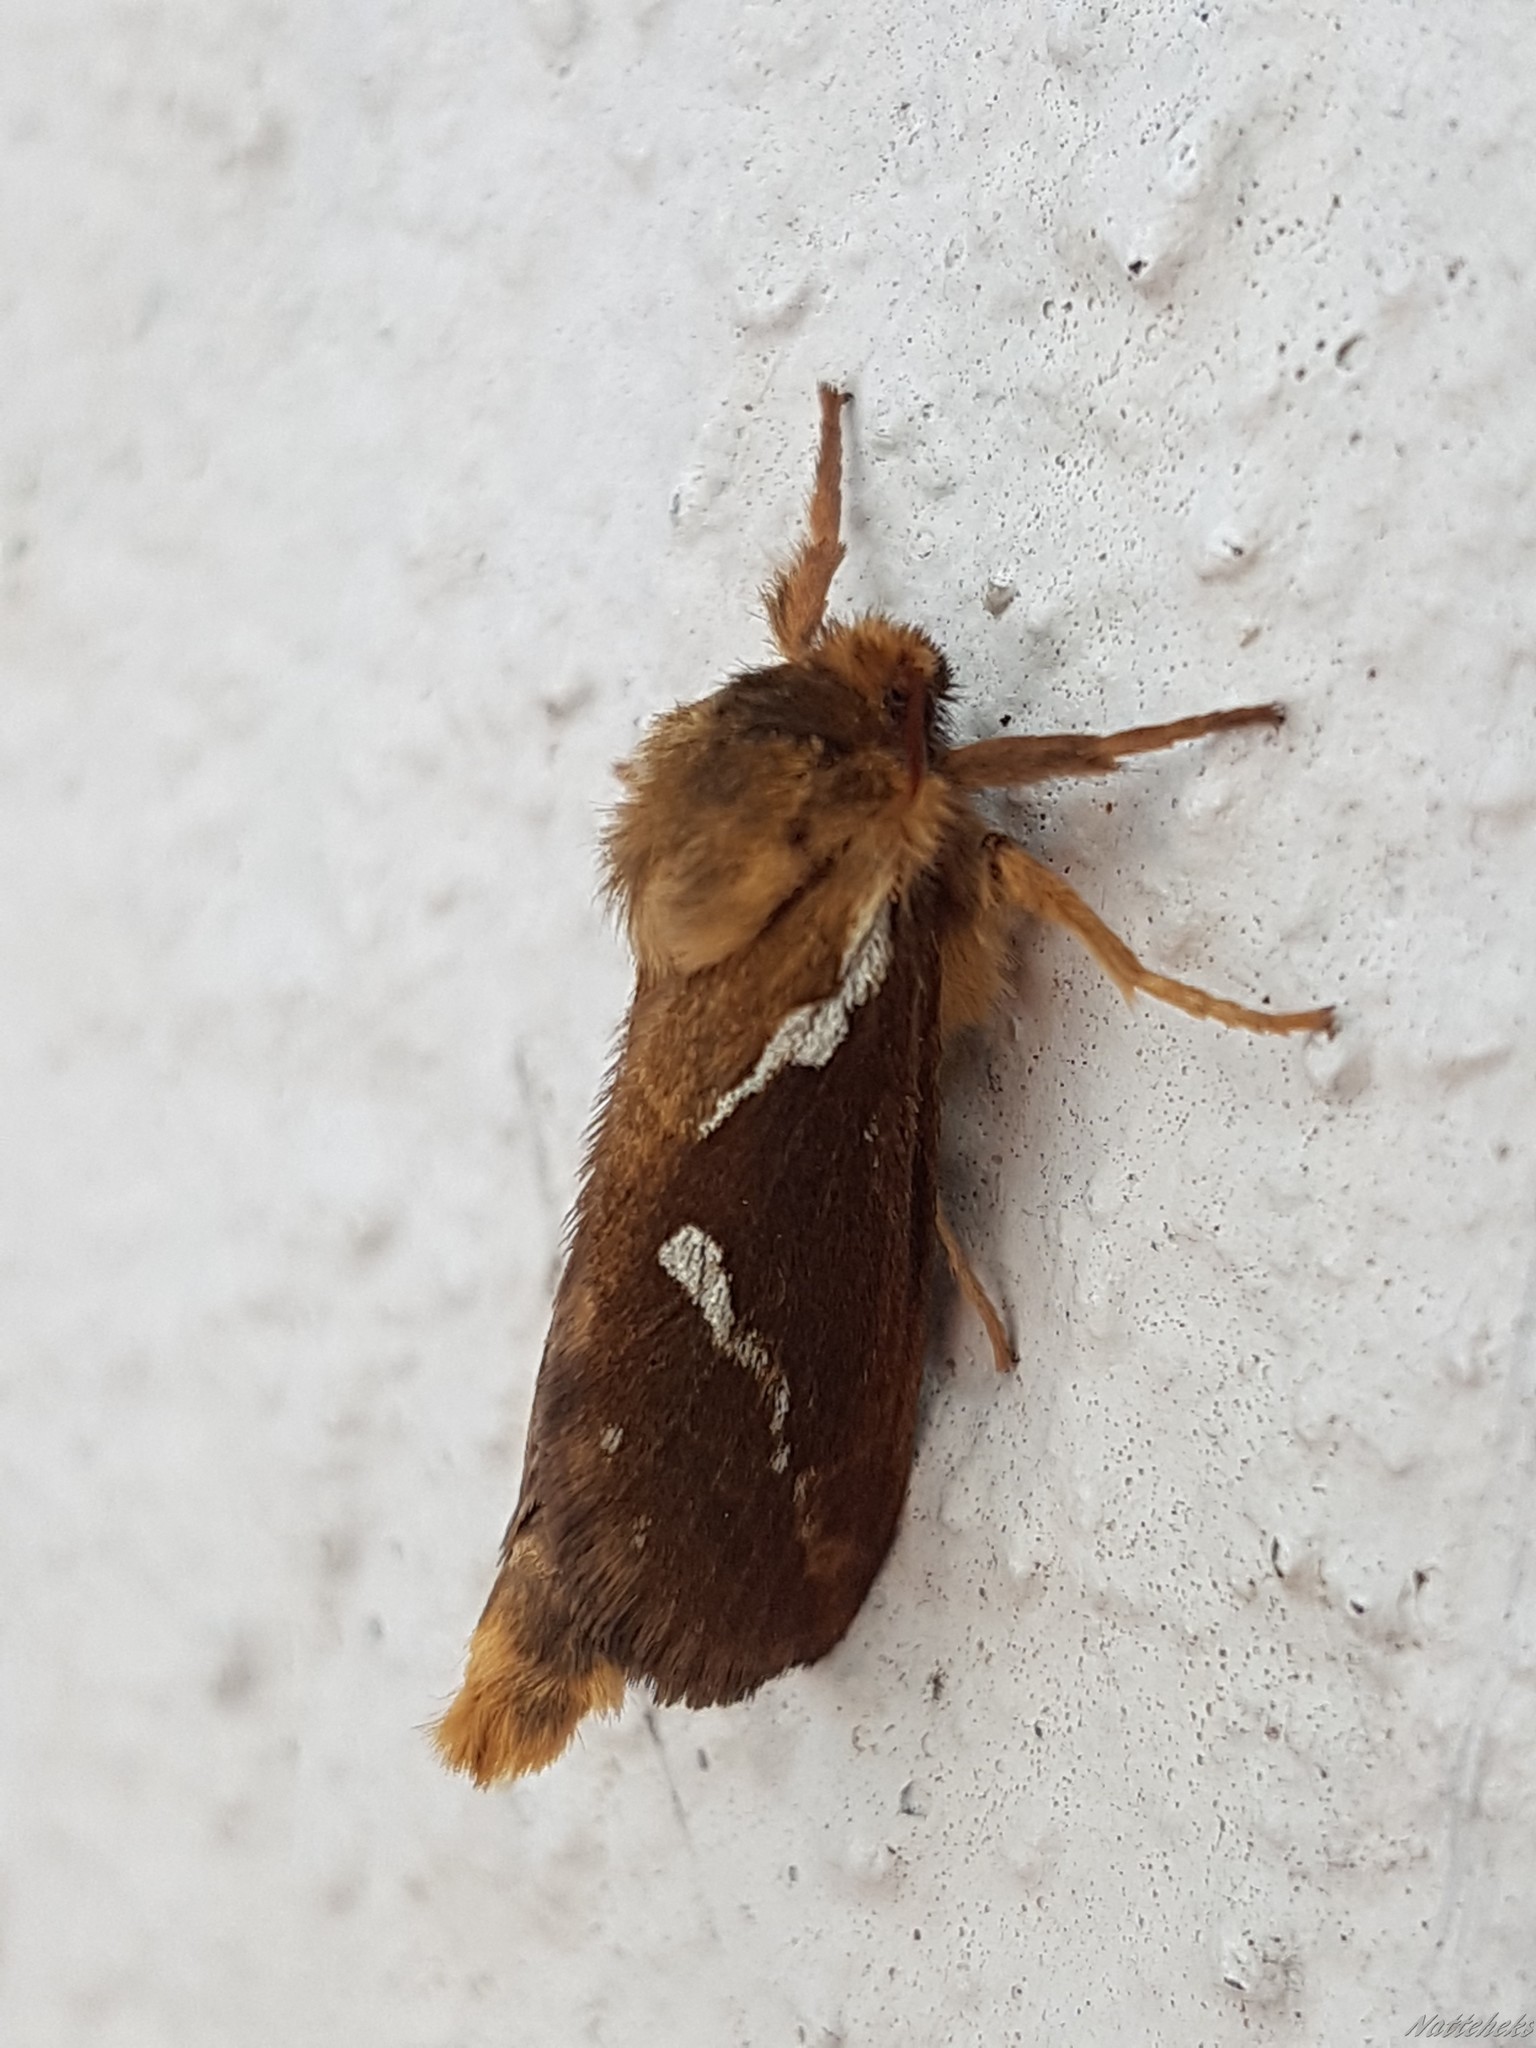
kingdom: Animalia
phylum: Arthropoda
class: Insecta
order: Lepidoptera
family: Hepialidae
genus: Korscheltellus
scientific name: Korscheltellus lupulina
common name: Common swift
